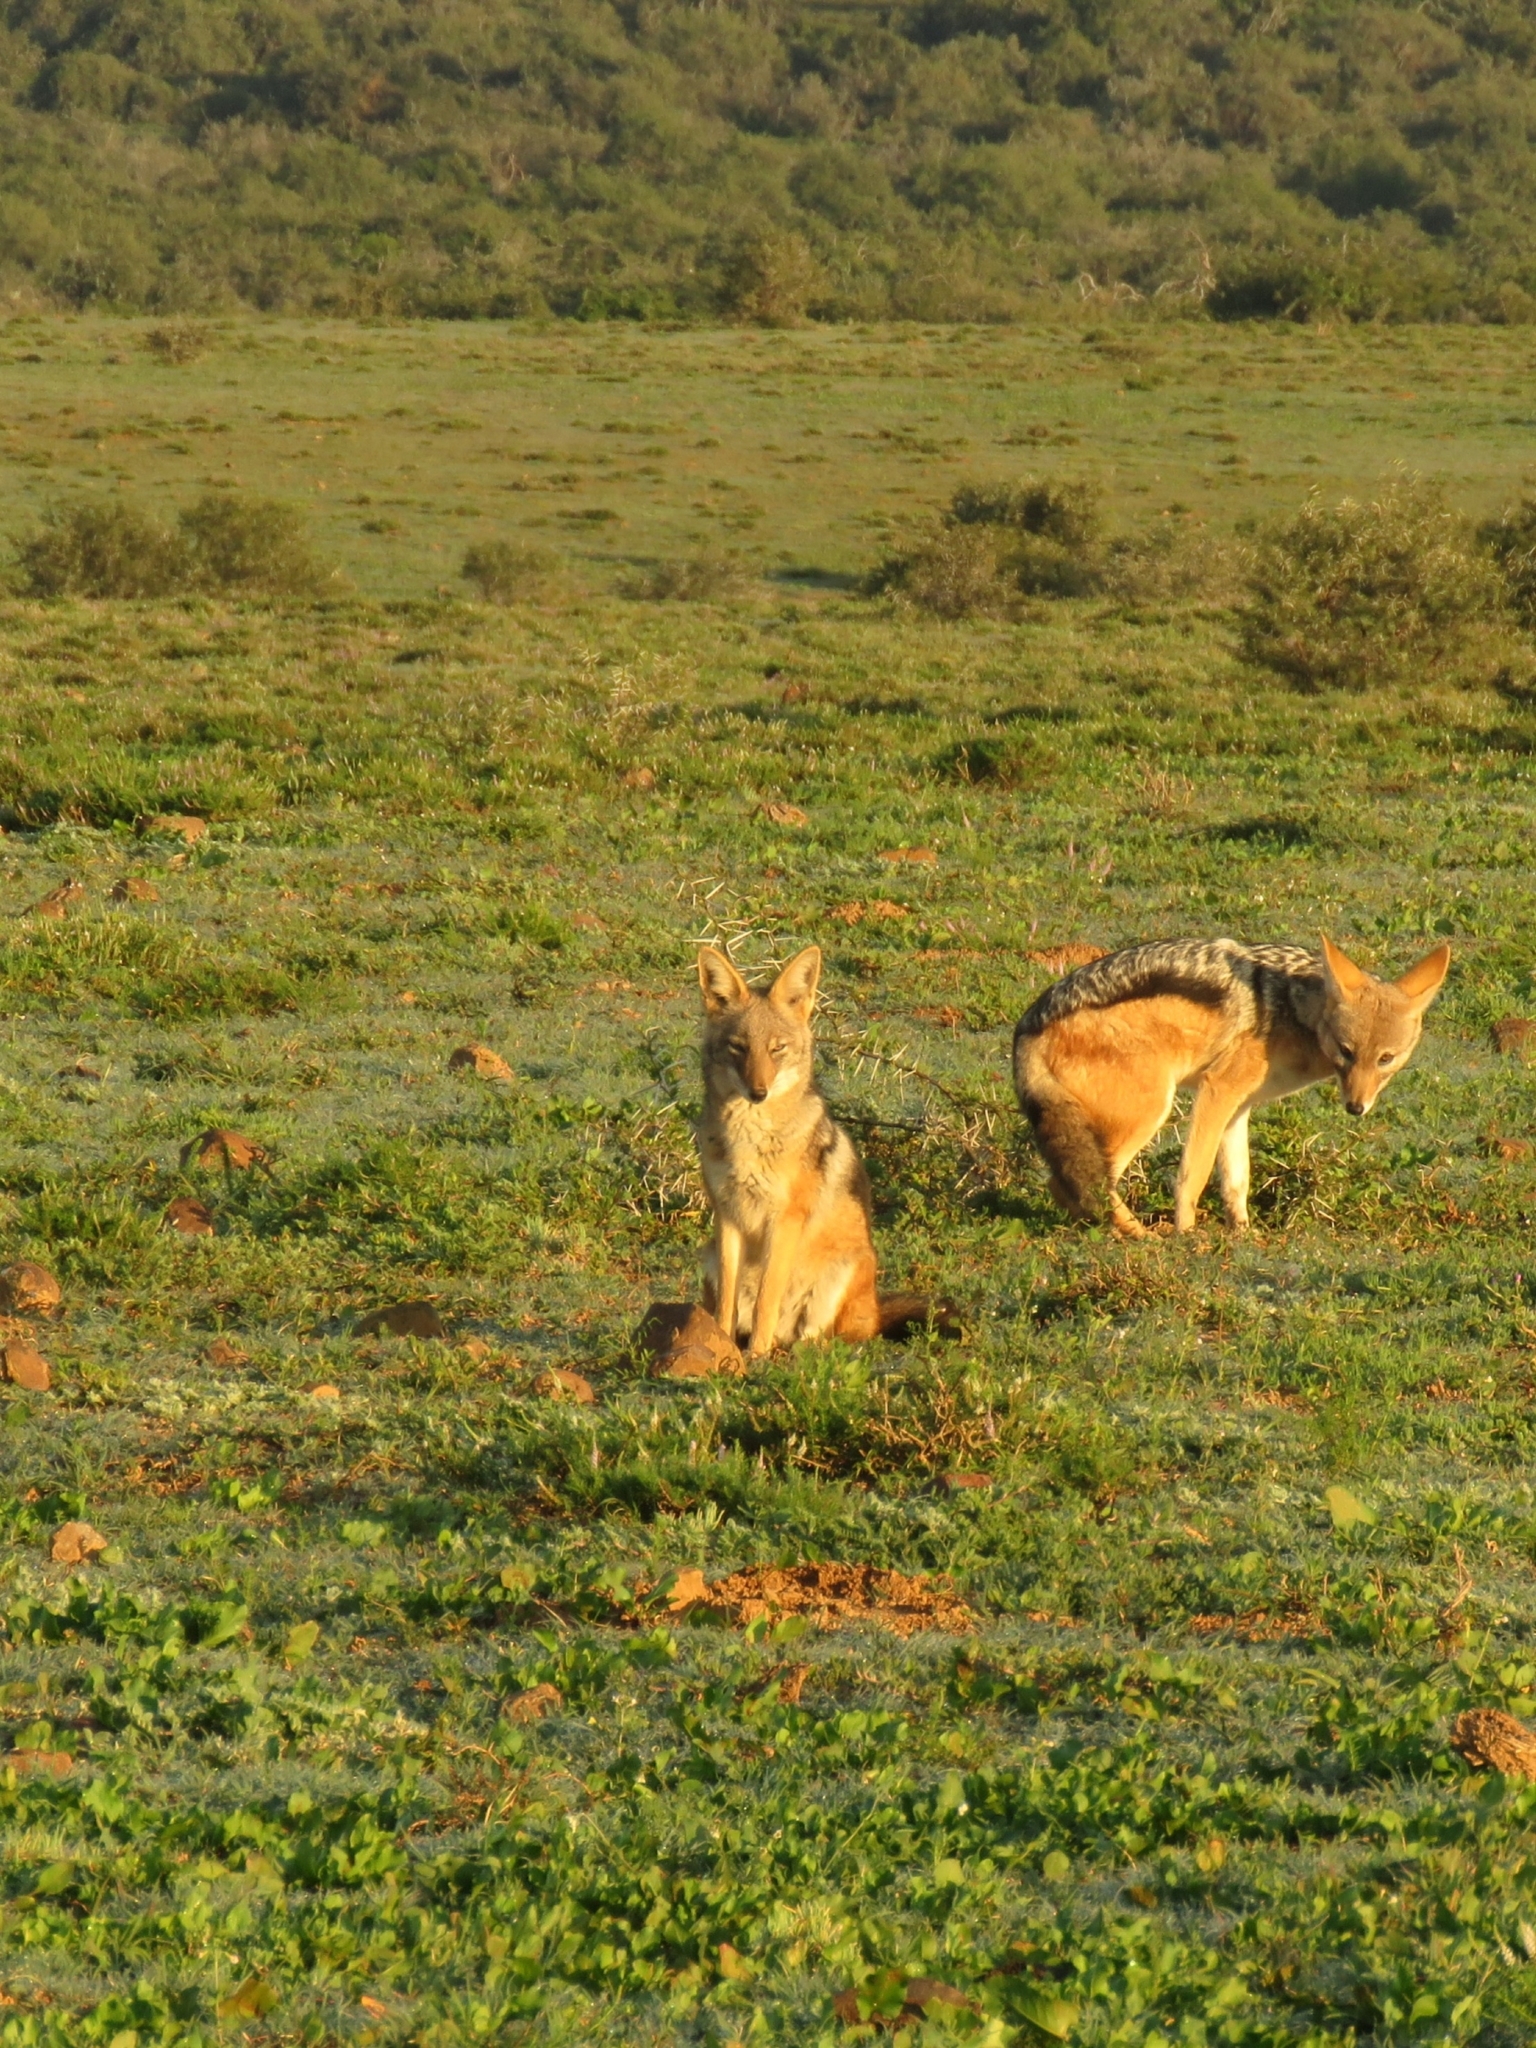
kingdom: Animalia
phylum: Chordata
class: Mammalia
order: Carnivora
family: Canidae
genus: Lupulella
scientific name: Lupulella
